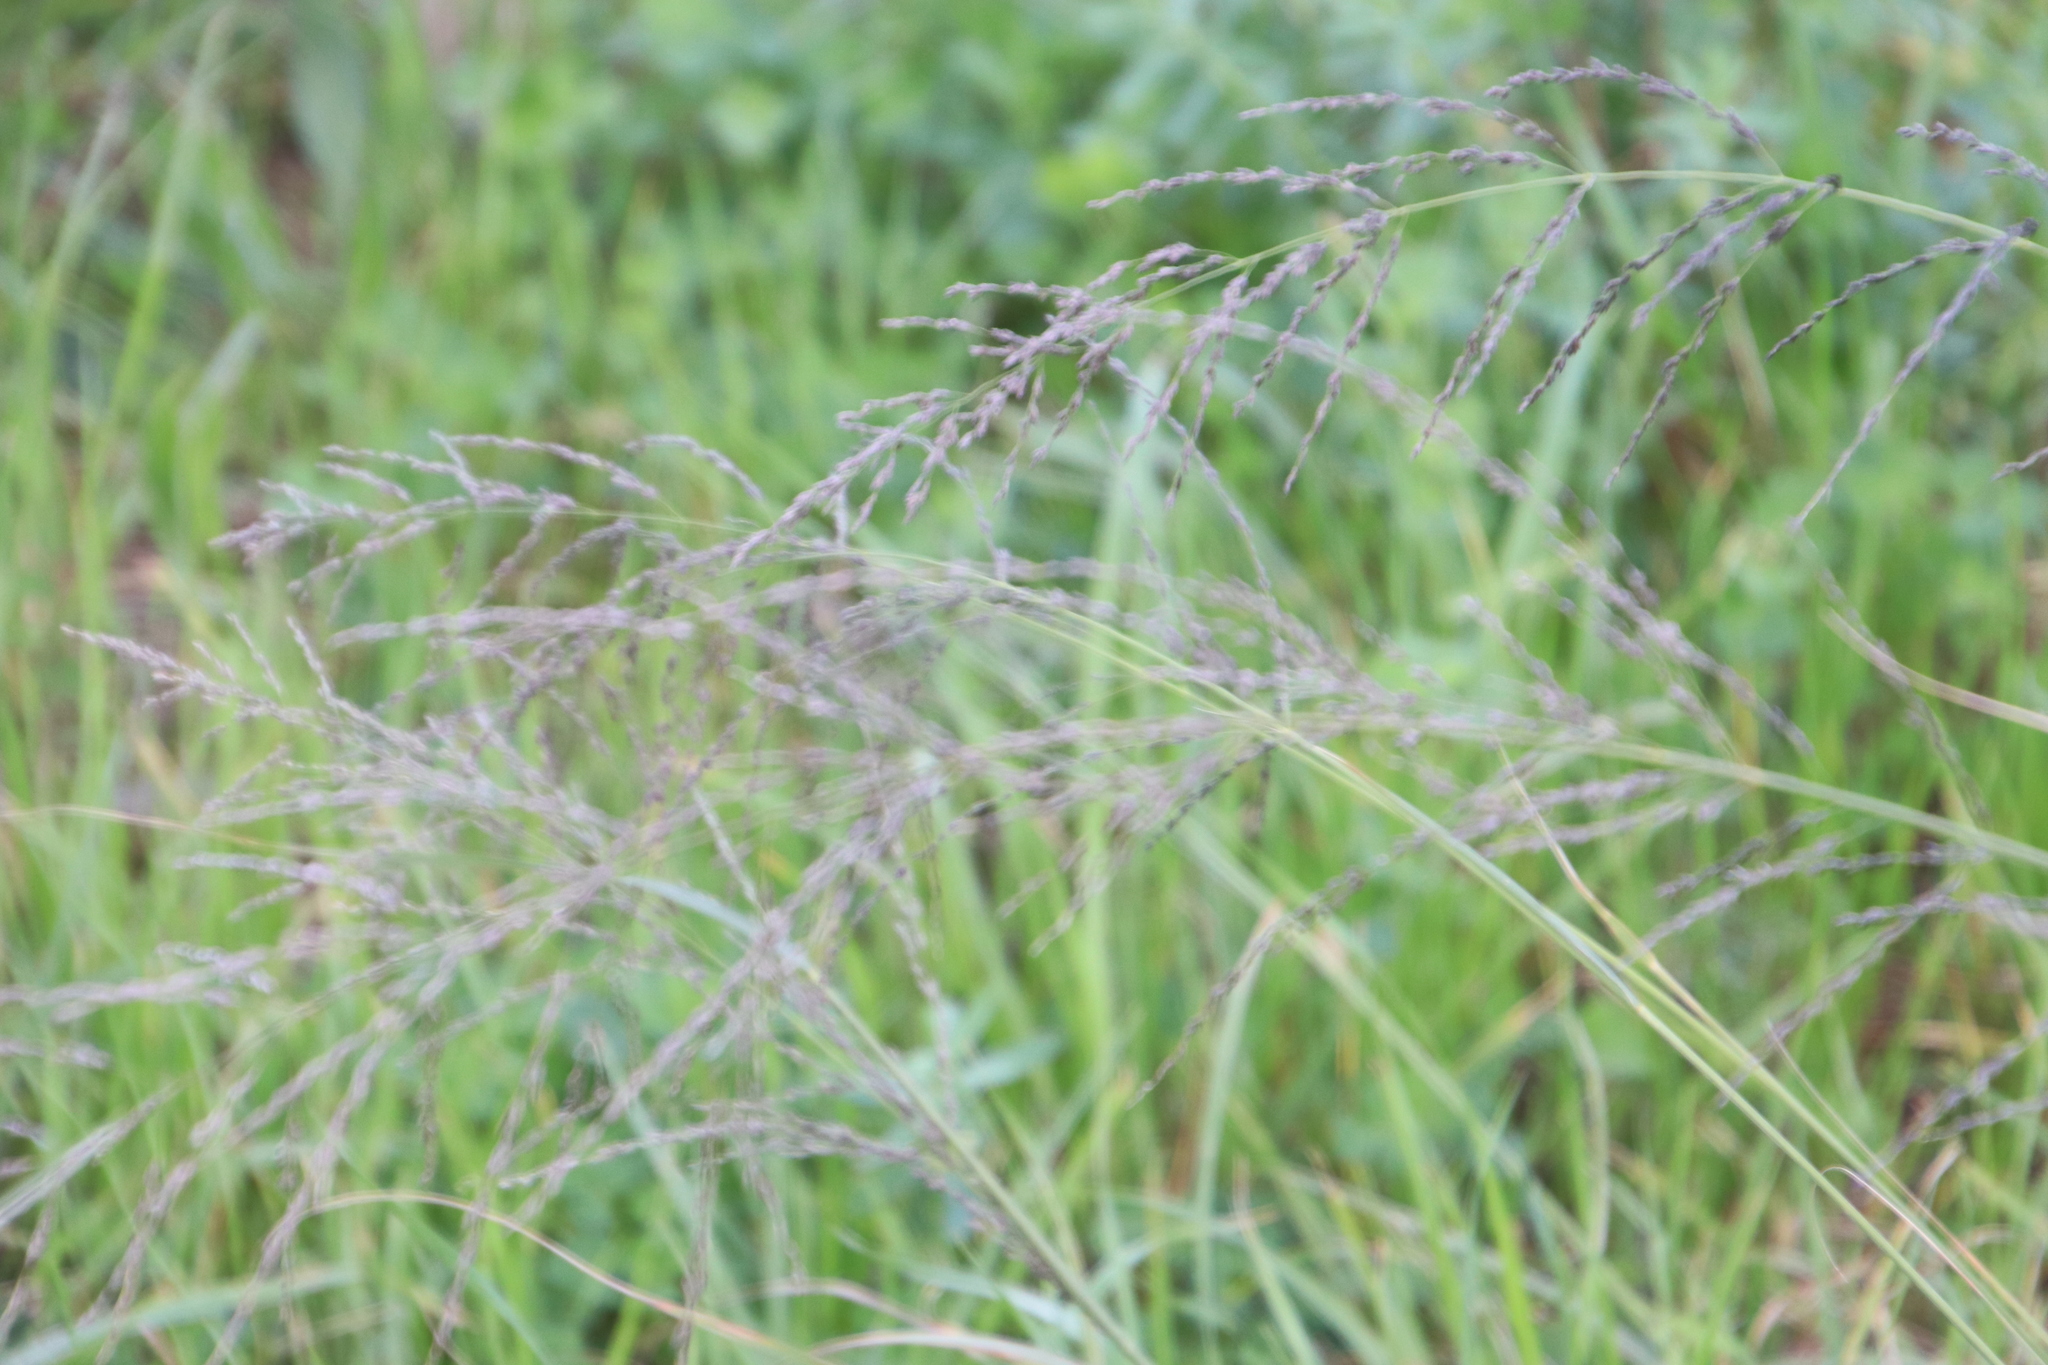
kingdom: Plantae
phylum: Tracheophyta
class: Liliopsida
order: Poales
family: Poaceae
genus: Eragrostis
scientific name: Eragrostis curvula
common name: African love-grass
